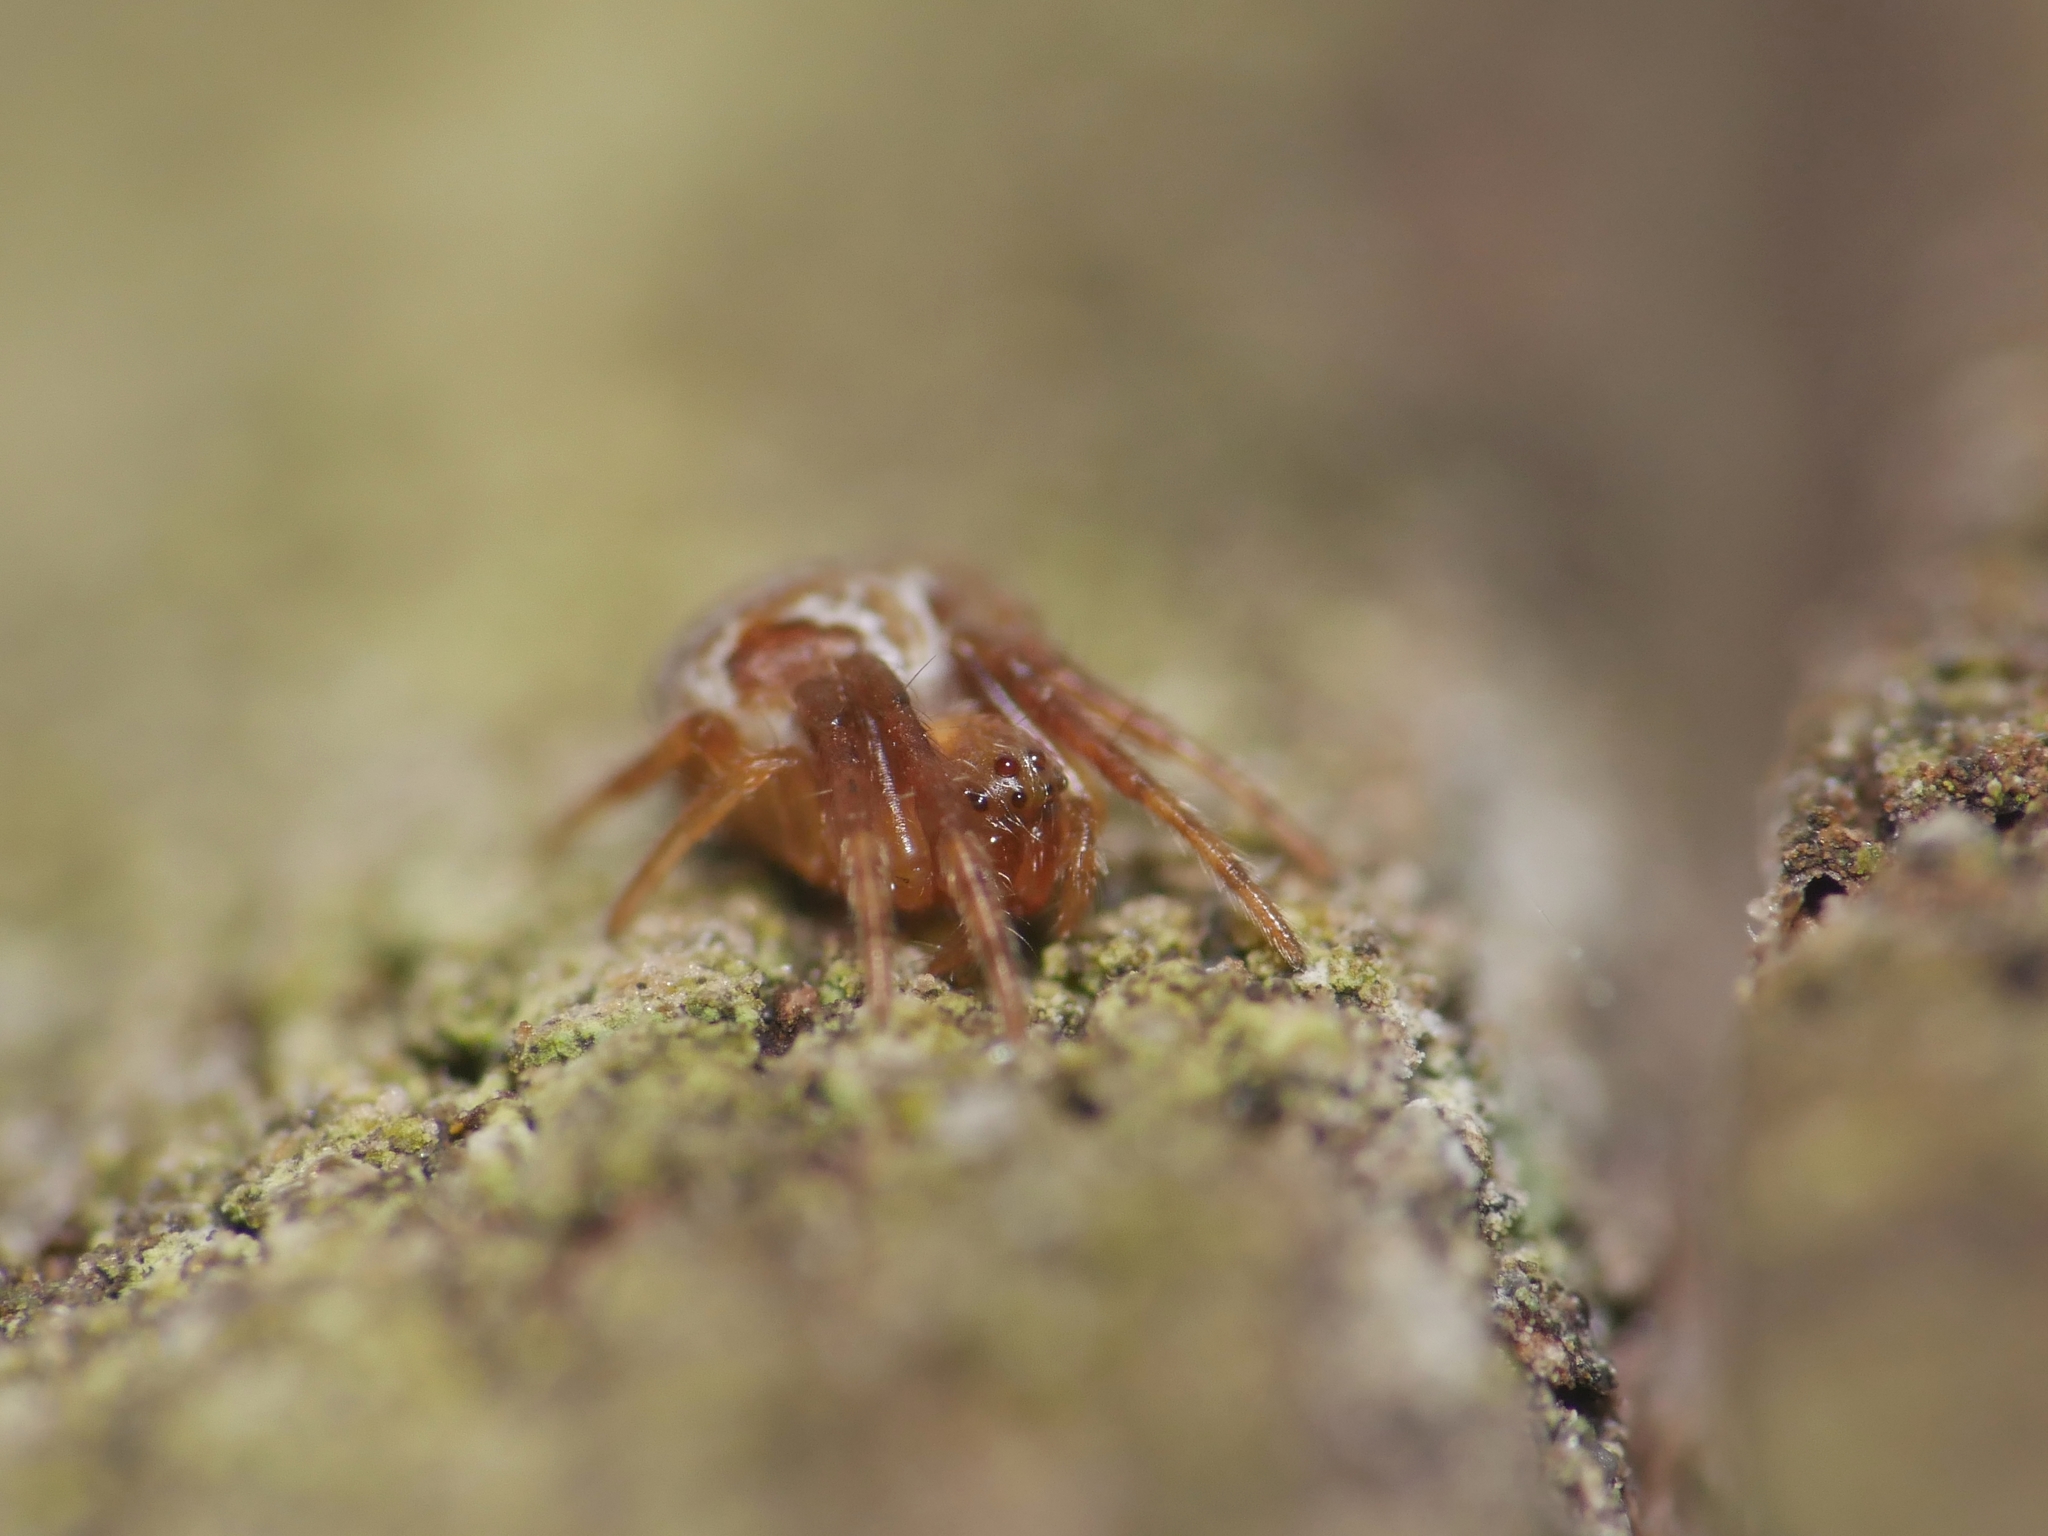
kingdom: Animalia
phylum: Arthropoda
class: Arachnida
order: Araneae
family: Araneidae
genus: Araneus
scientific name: Araneus sturmi
